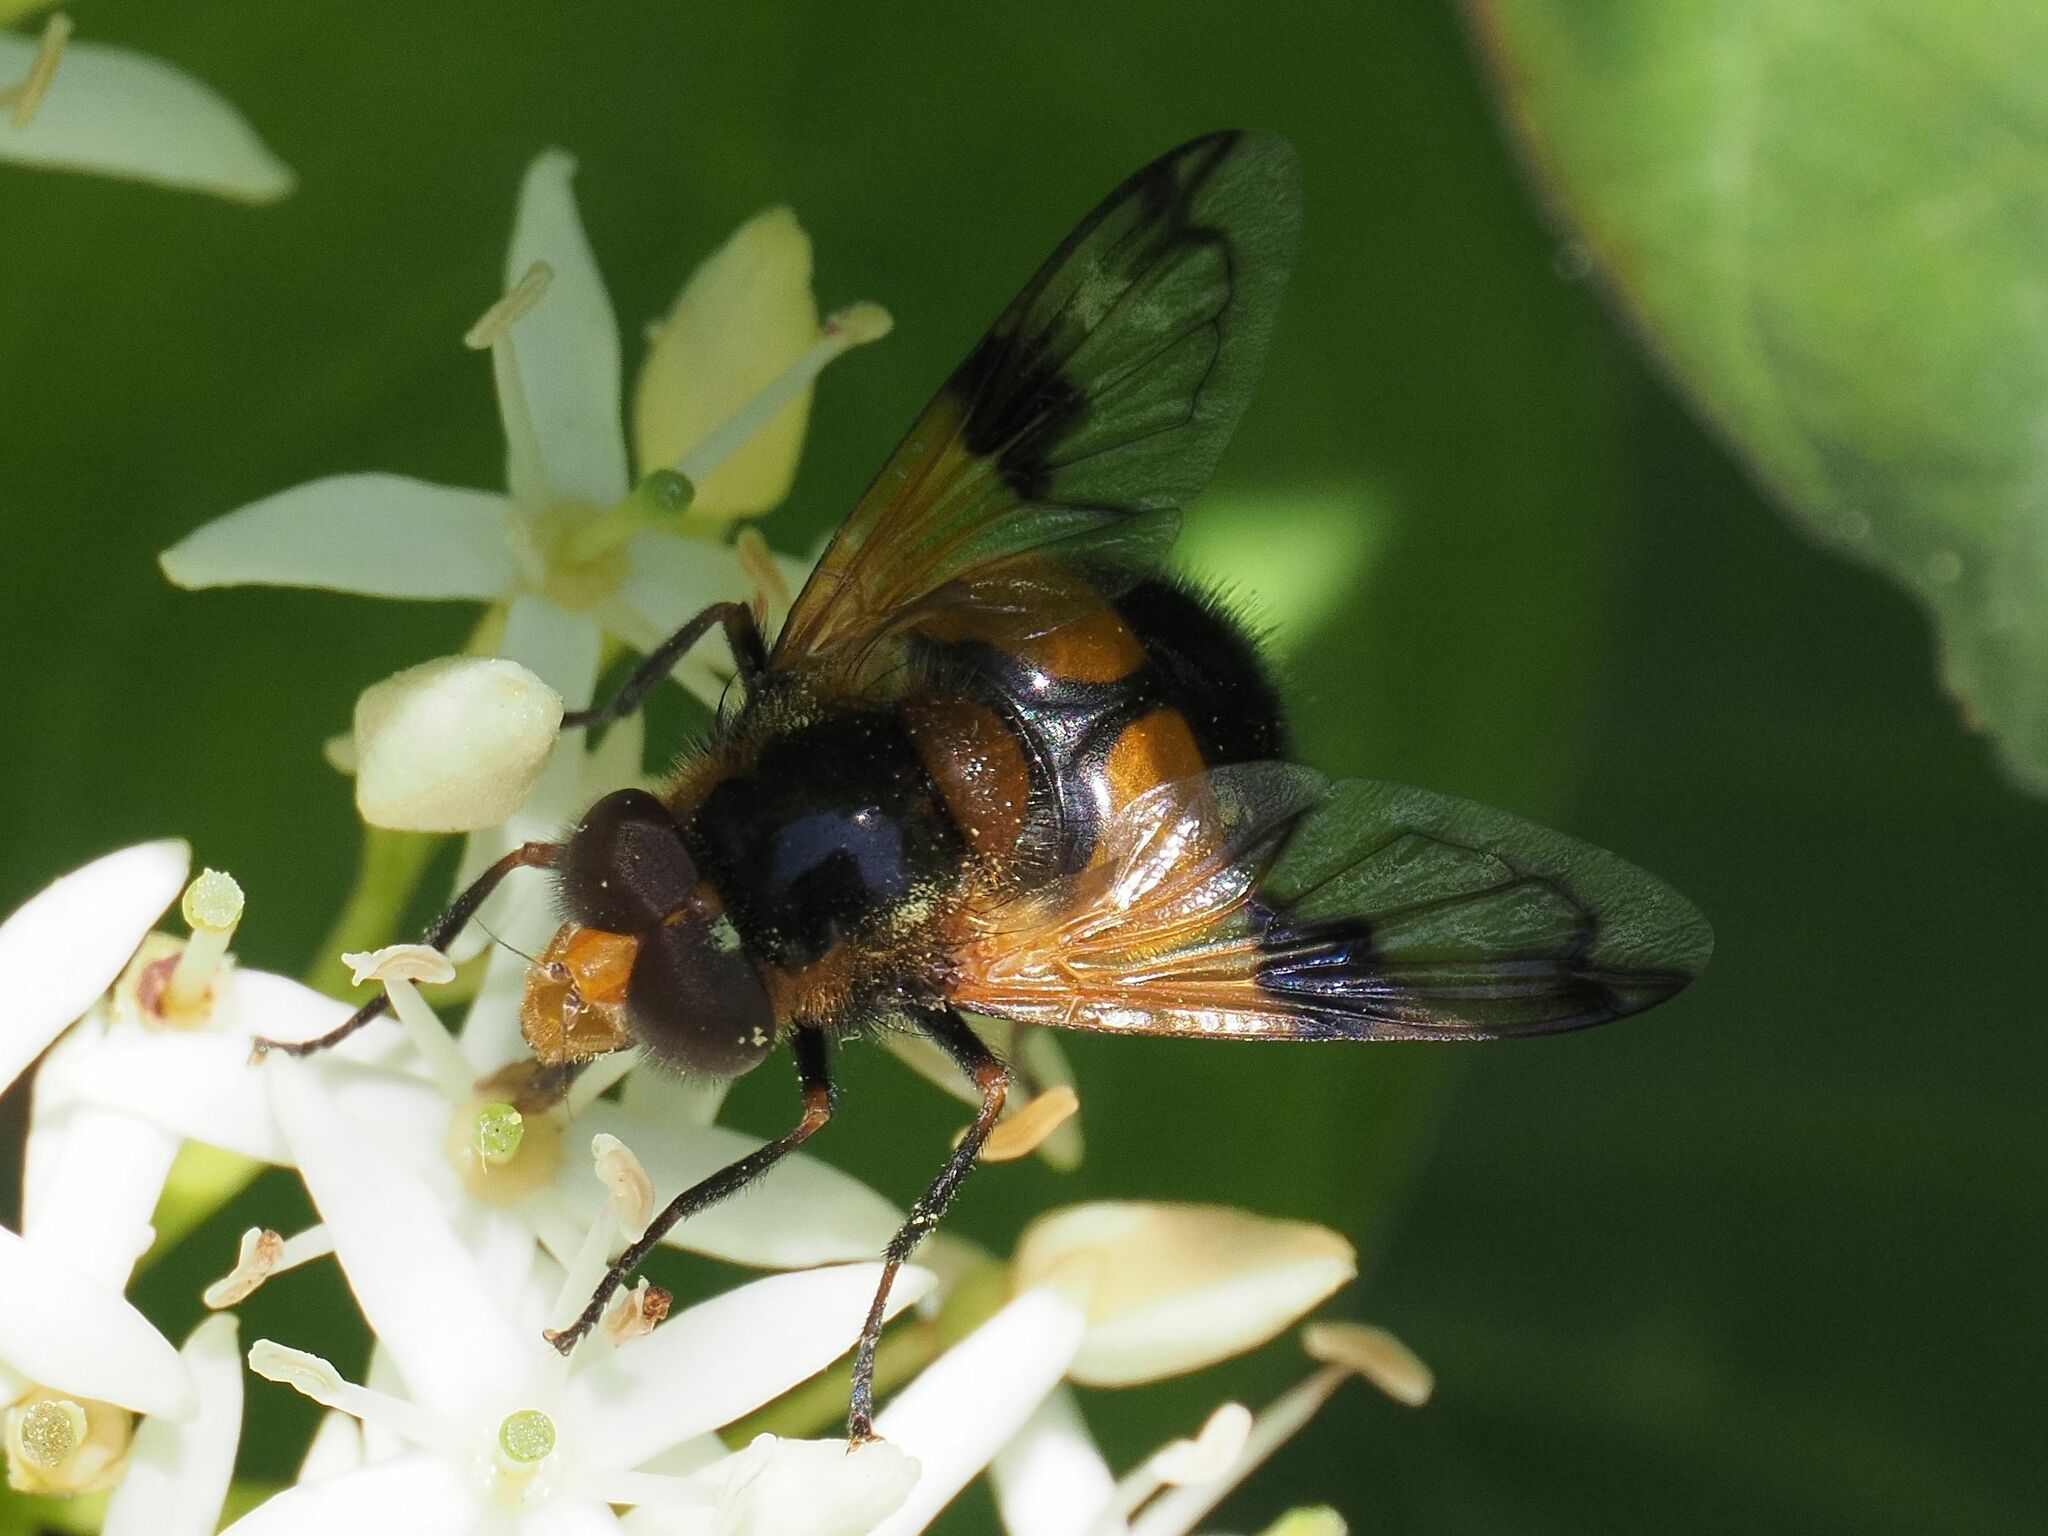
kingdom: Animalia
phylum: Arthropoda
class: Insecta
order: Diptera
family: Syrphidae
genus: Volucella
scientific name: Volucella inflata
